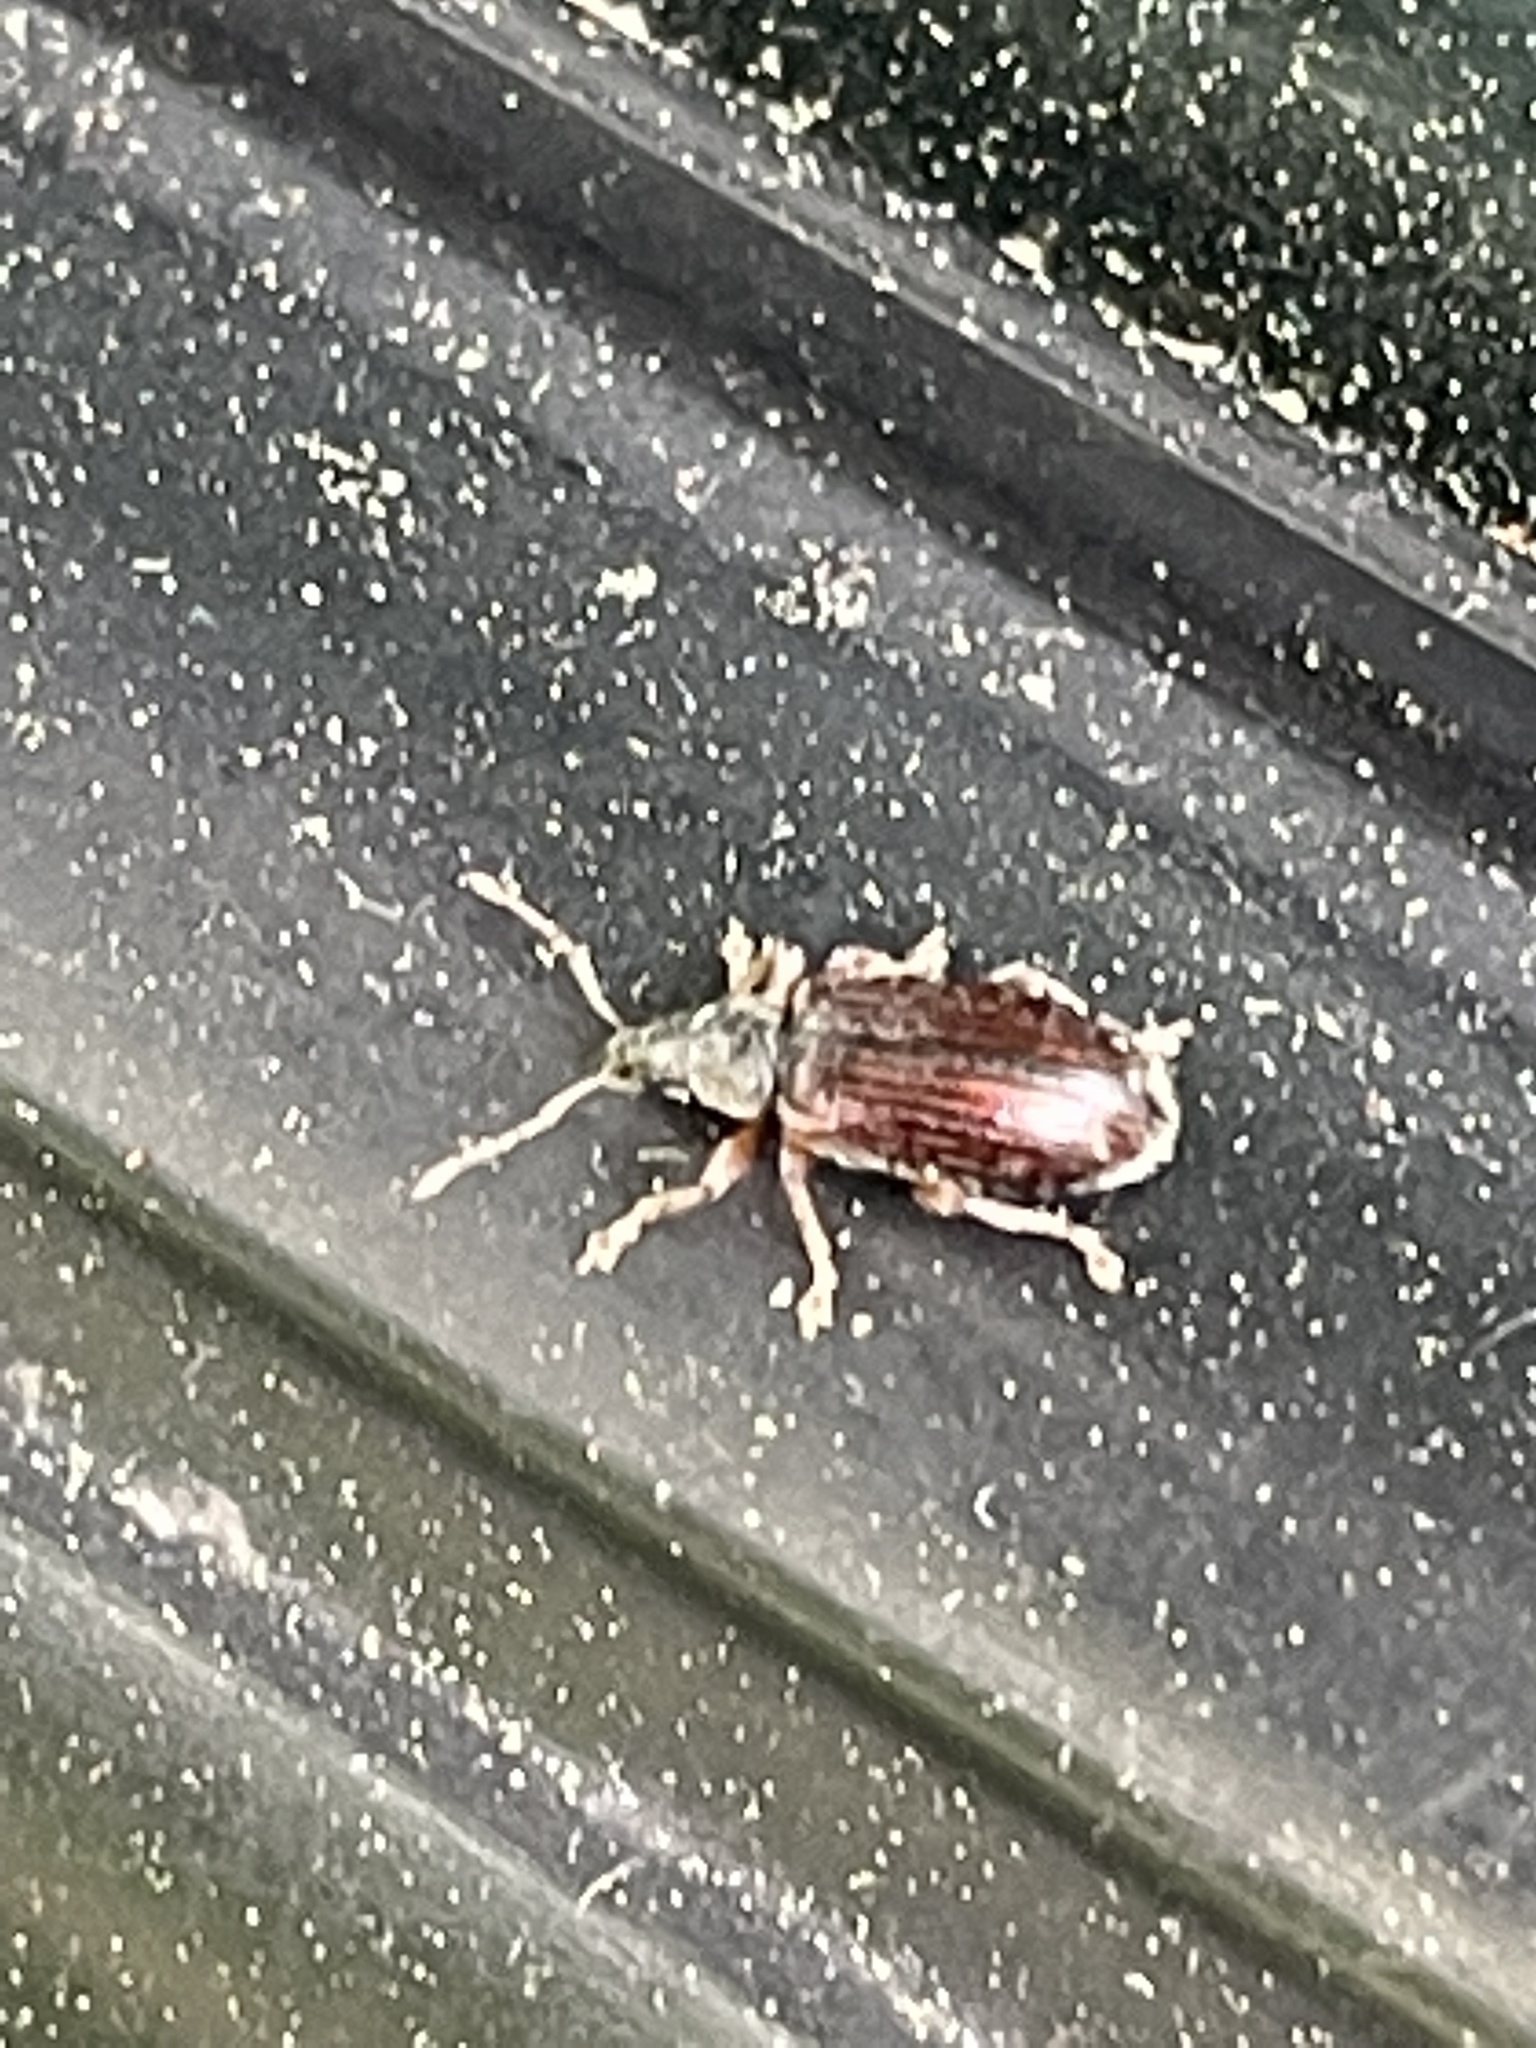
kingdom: Animalia
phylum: Arthropoda
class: Insecta
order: Coleoptera
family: Curculionidae
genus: Phyllobius
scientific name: Phyllobius oblongus
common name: Brown leaf weevil
